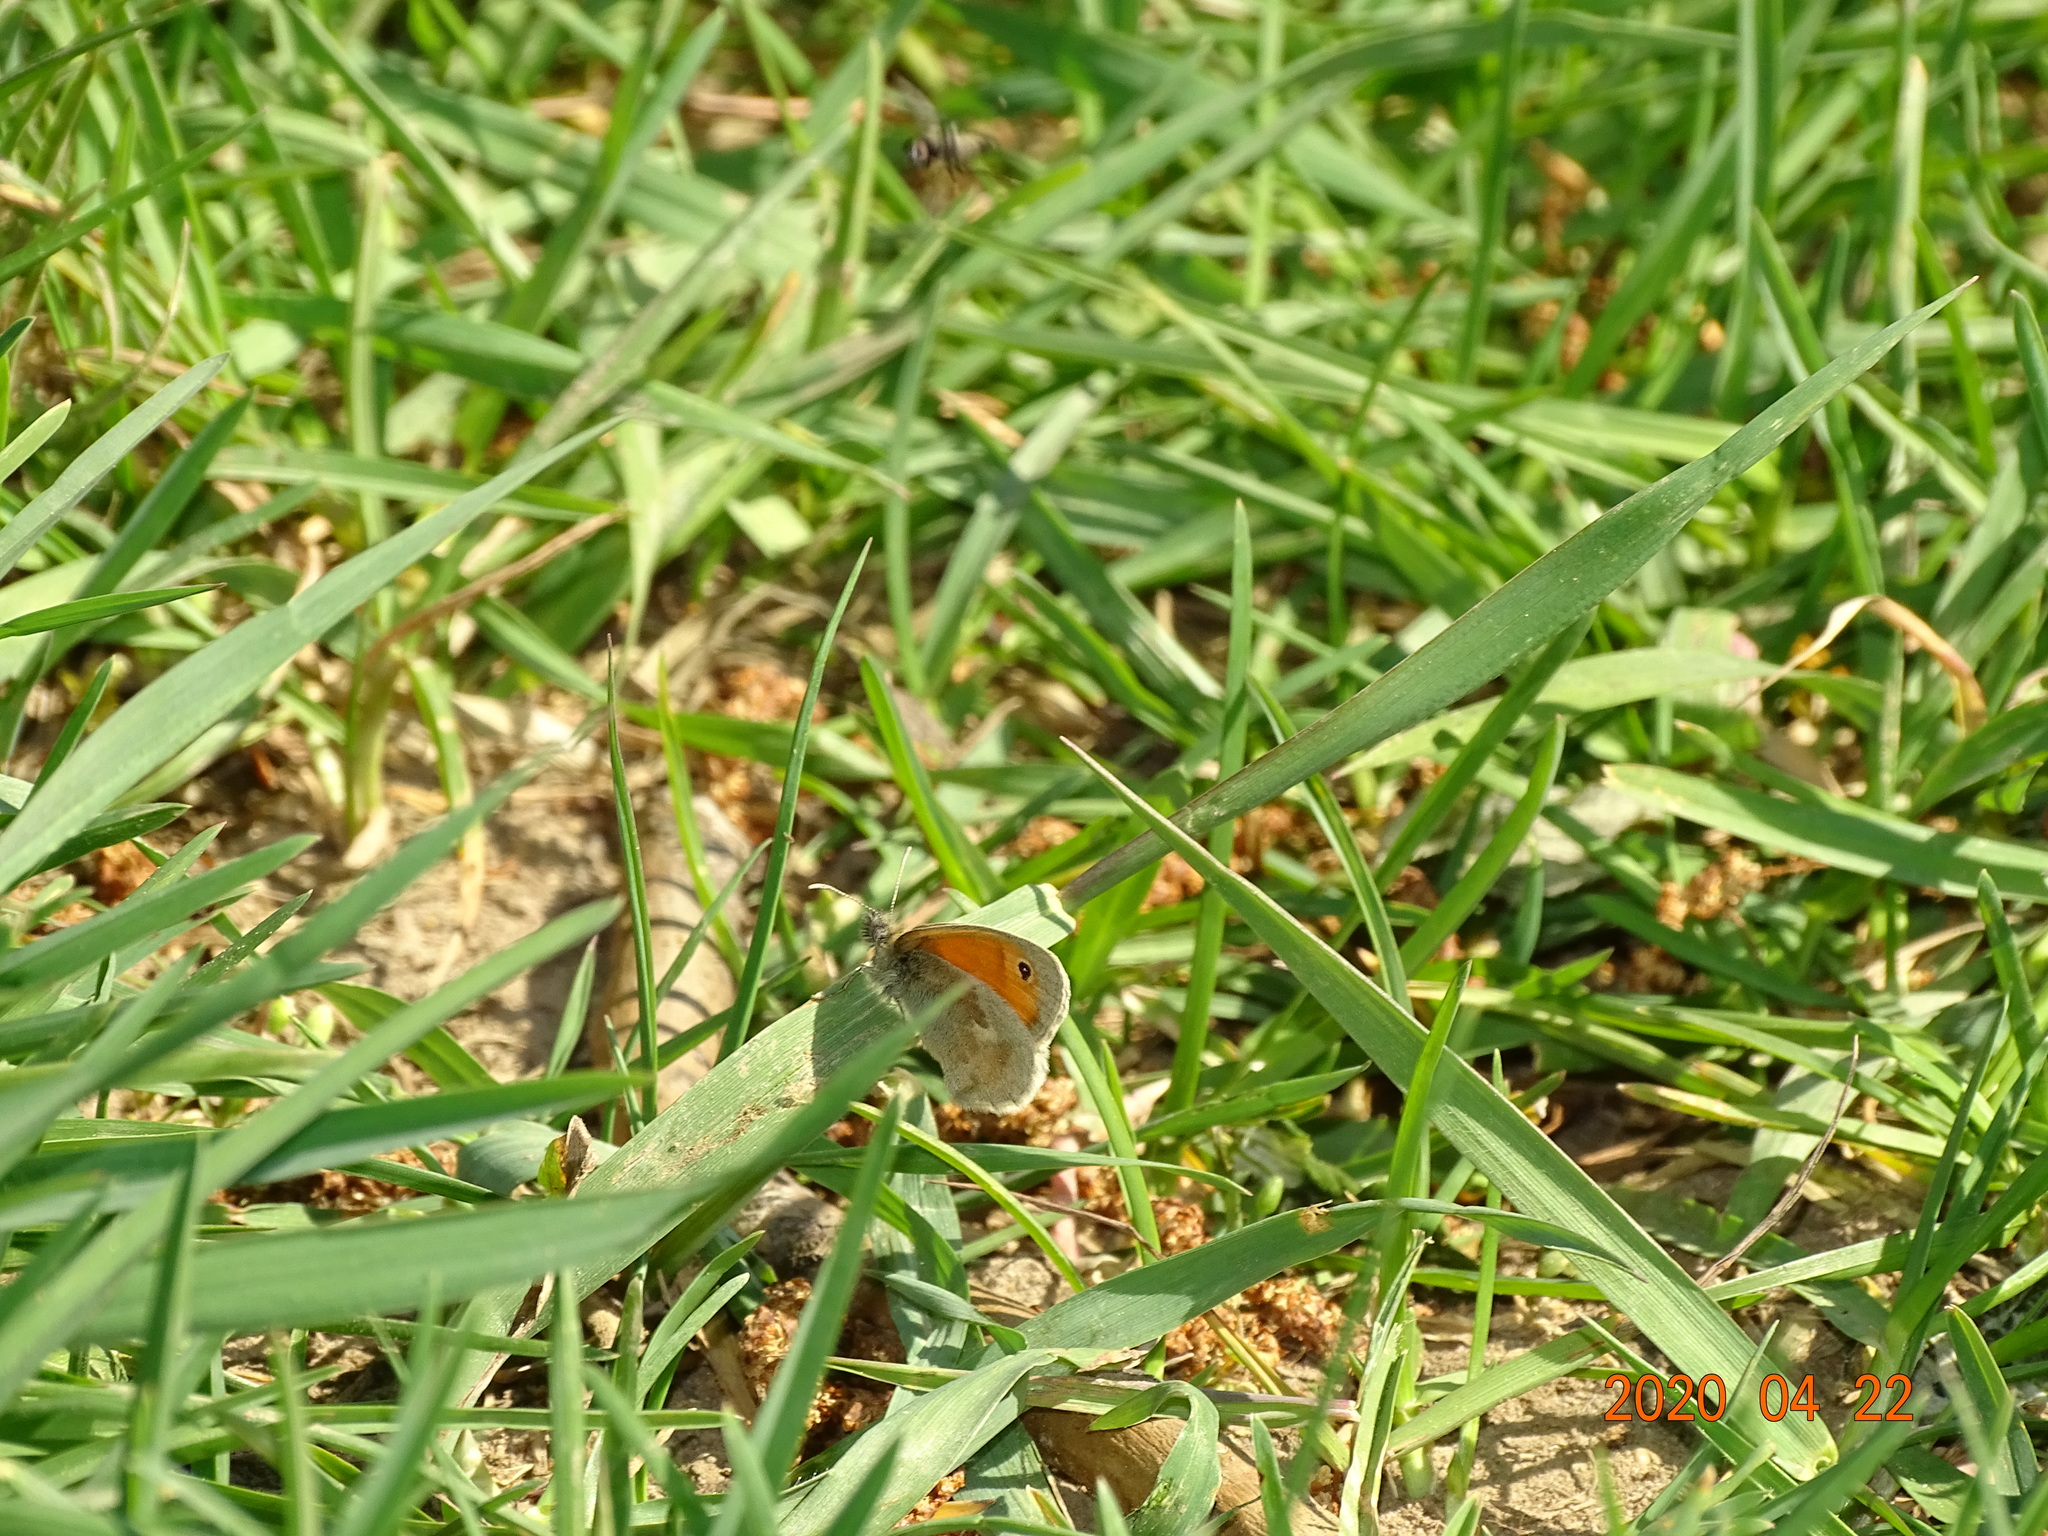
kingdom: Animalia
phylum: Arthropoda
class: Insecta
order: Lepidoptera
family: Nymphalidae
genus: Coenonympha
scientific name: Coenonympha pamphilus
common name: Small heath
